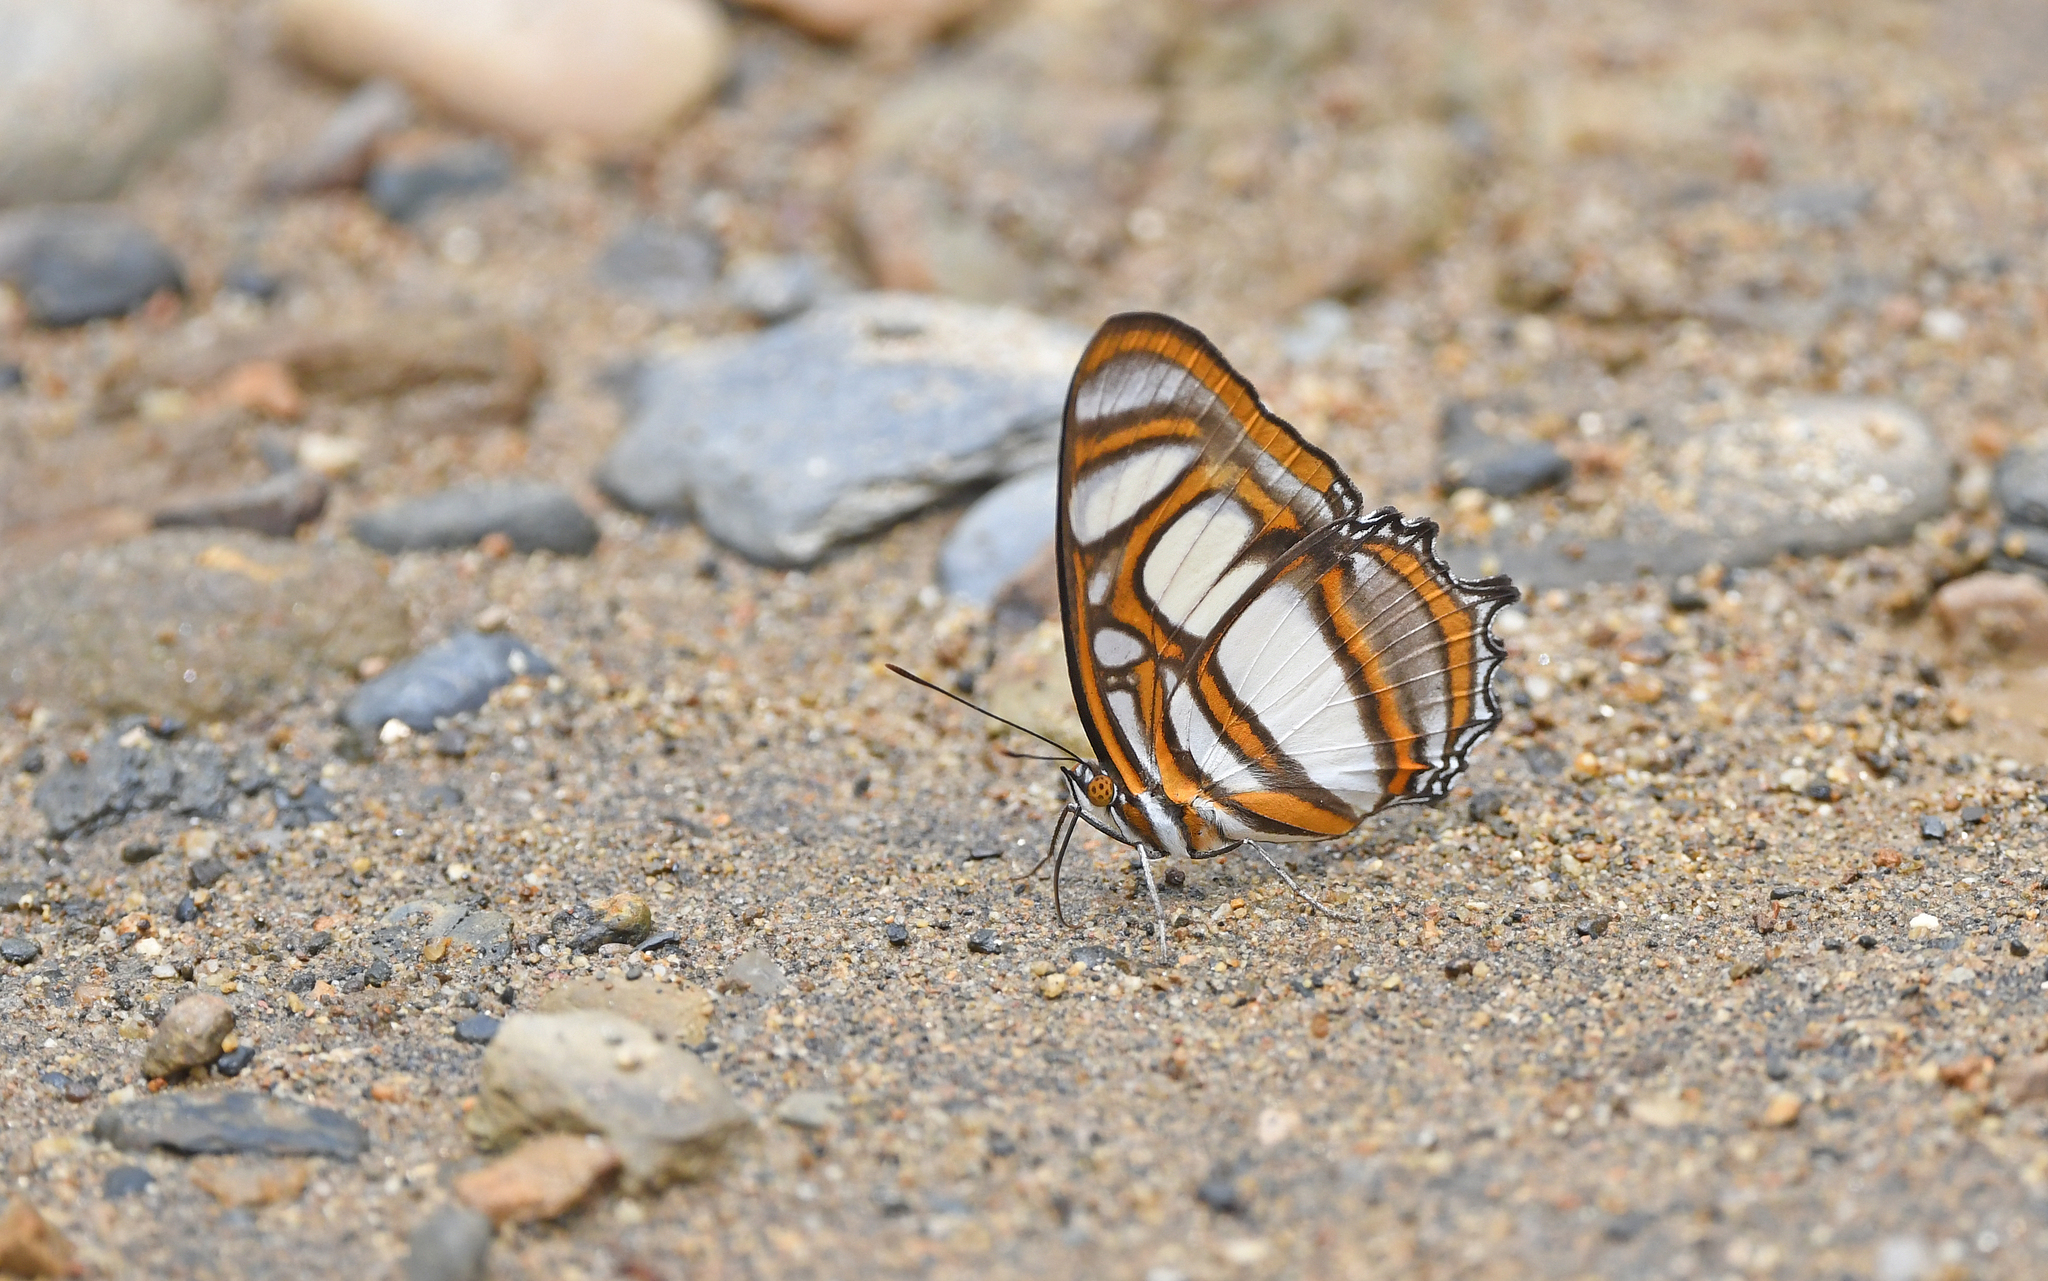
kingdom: Animalia
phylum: Arthropoda
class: Insecta
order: Lepidoptera
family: Nymphalidae
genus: Metamorpha
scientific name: Metamorpha elissa
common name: Elissa page
